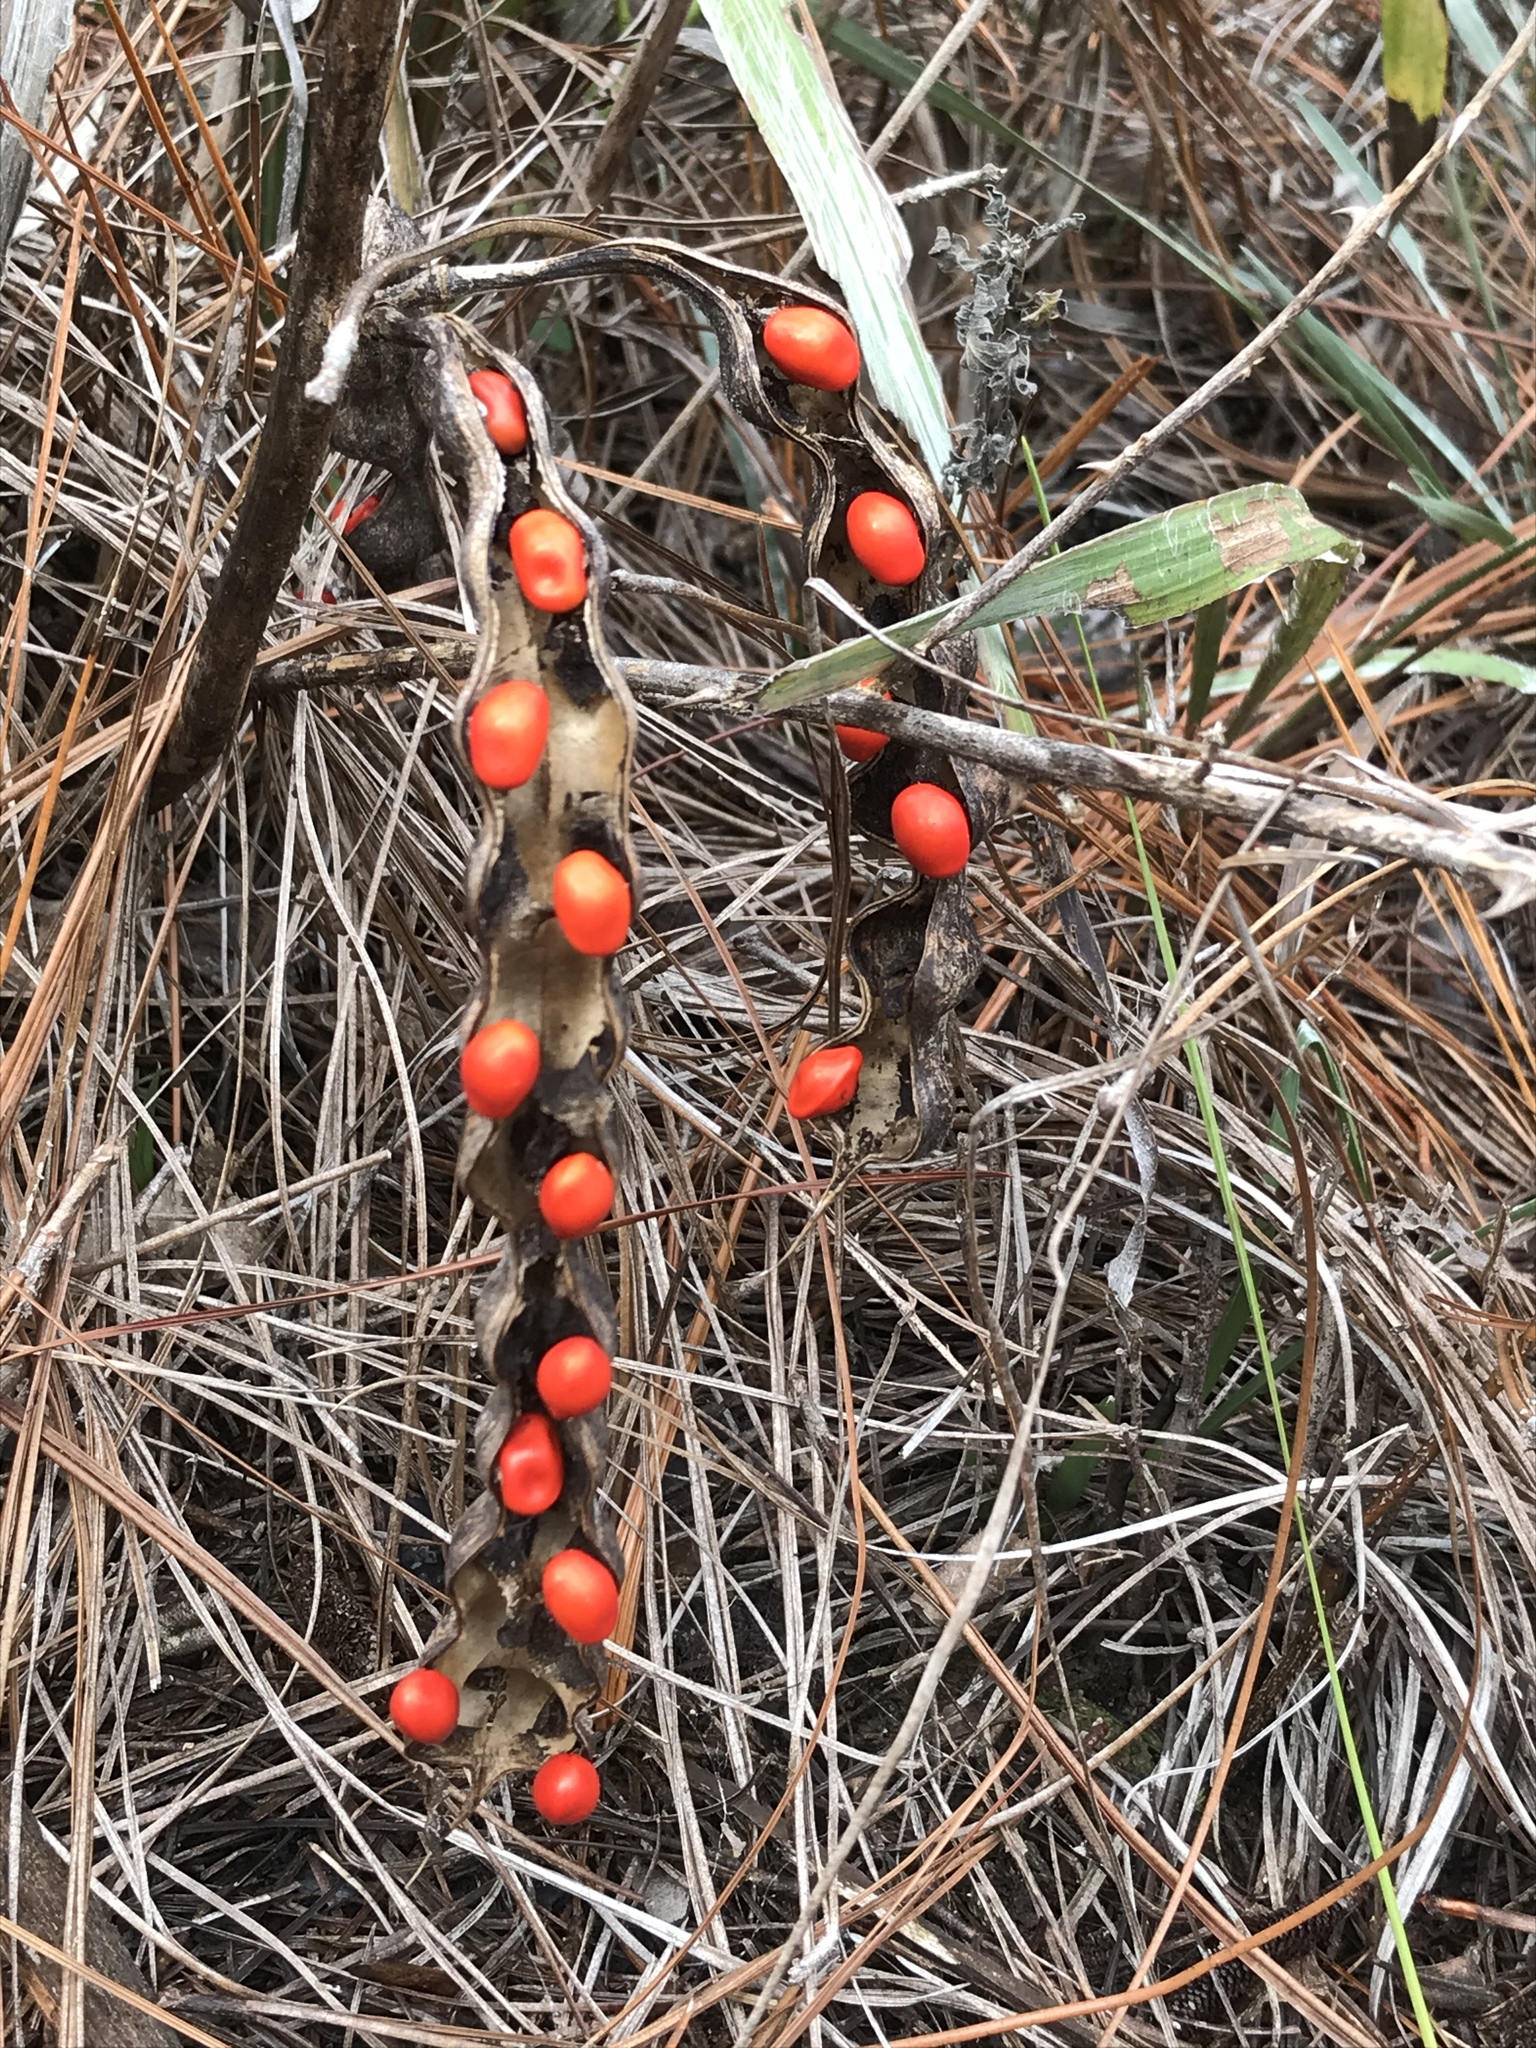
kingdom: Plantae
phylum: Tracheophyta
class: Magnoliopsida
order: Fabales
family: Fabaceae
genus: Erythrina
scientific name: Erythrina herbacea
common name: Coral-bean
